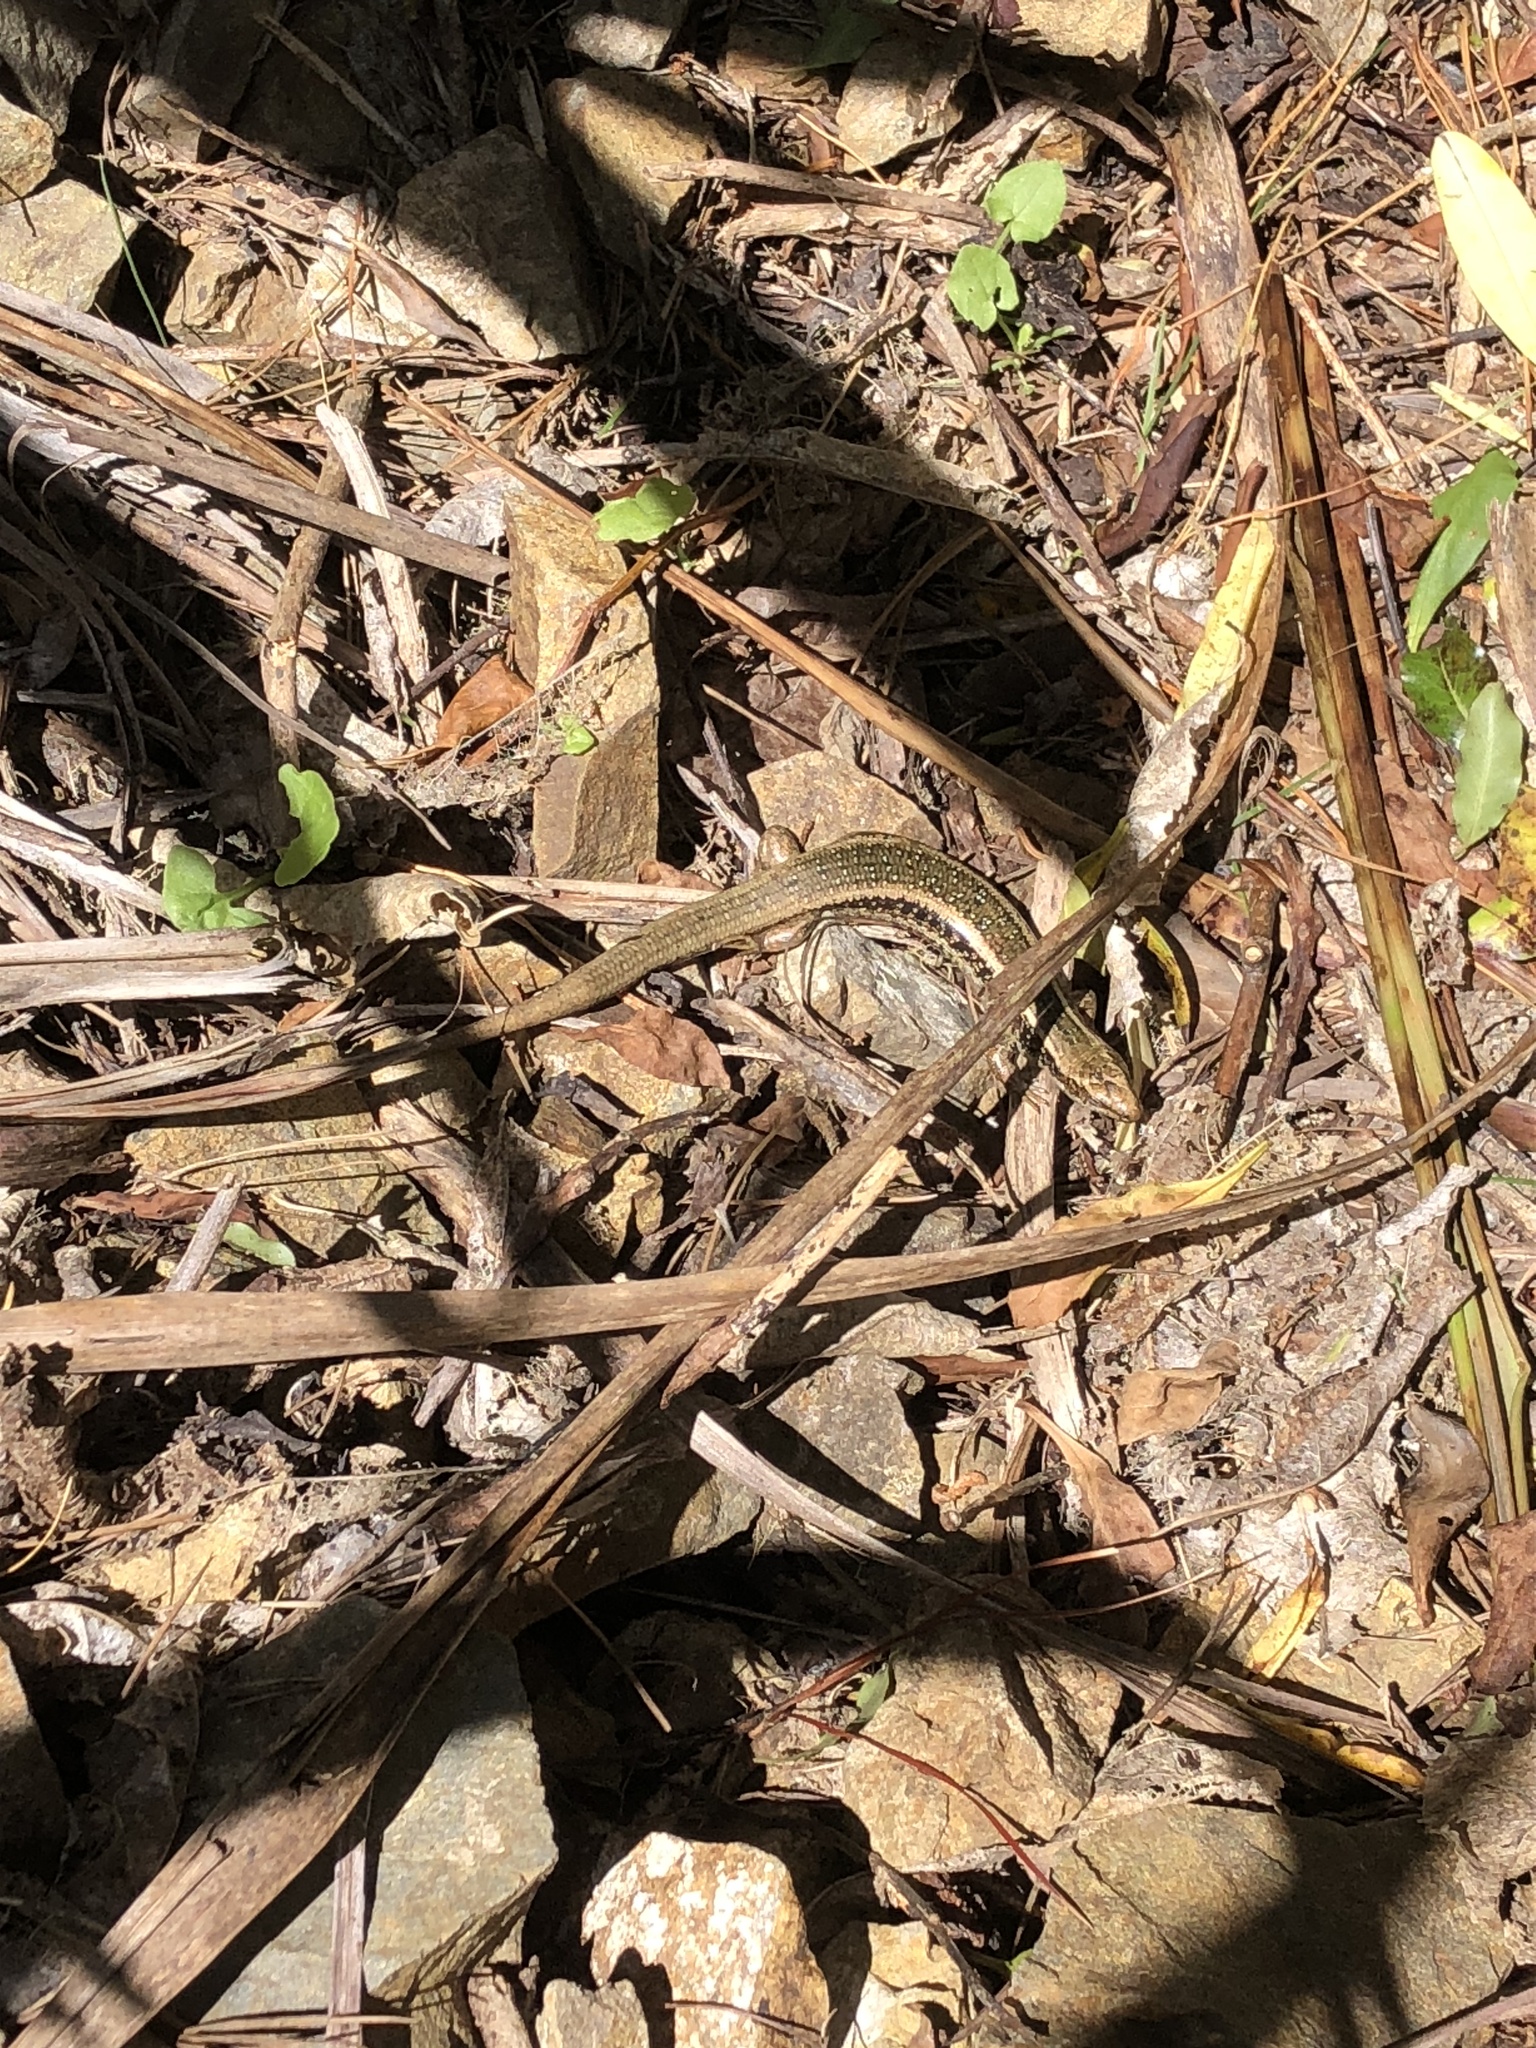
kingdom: Animalia
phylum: Chordata
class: Squamata
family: Scincidae
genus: Oligosoma
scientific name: Oligosoma kokowai
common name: Northern spotted skink
